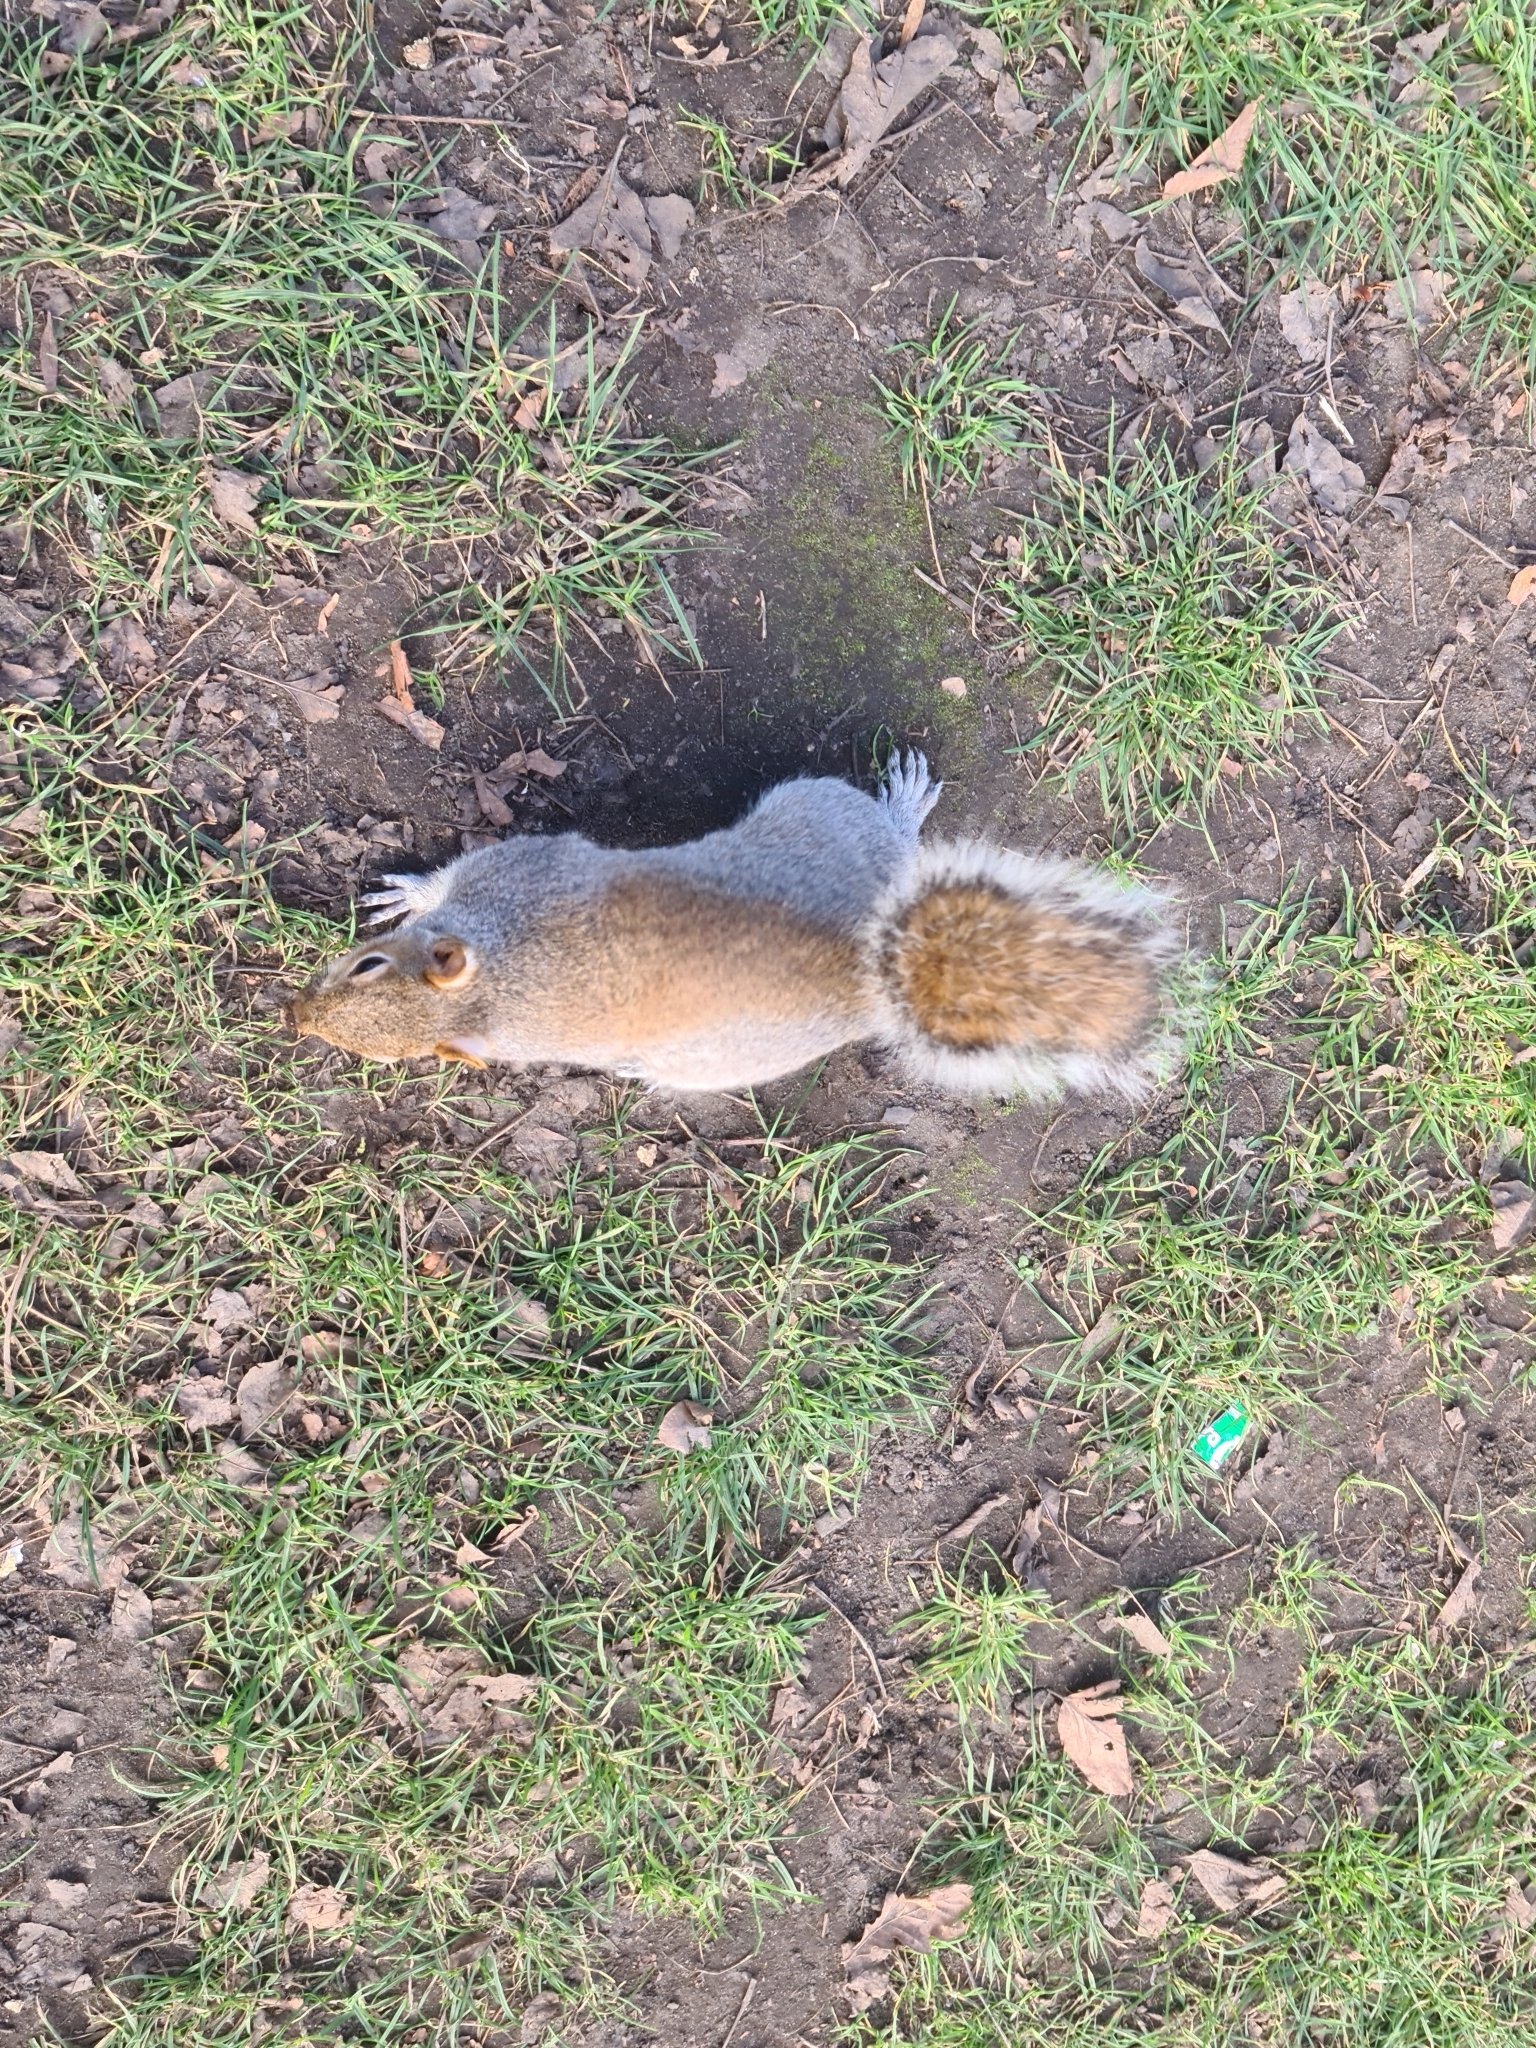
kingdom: Animalia
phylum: Chordata
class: Mammalia
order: Rodentia
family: Sciuridae
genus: Sciurus
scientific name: Sciurus carolinensis
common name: Eastern gray squirrel
